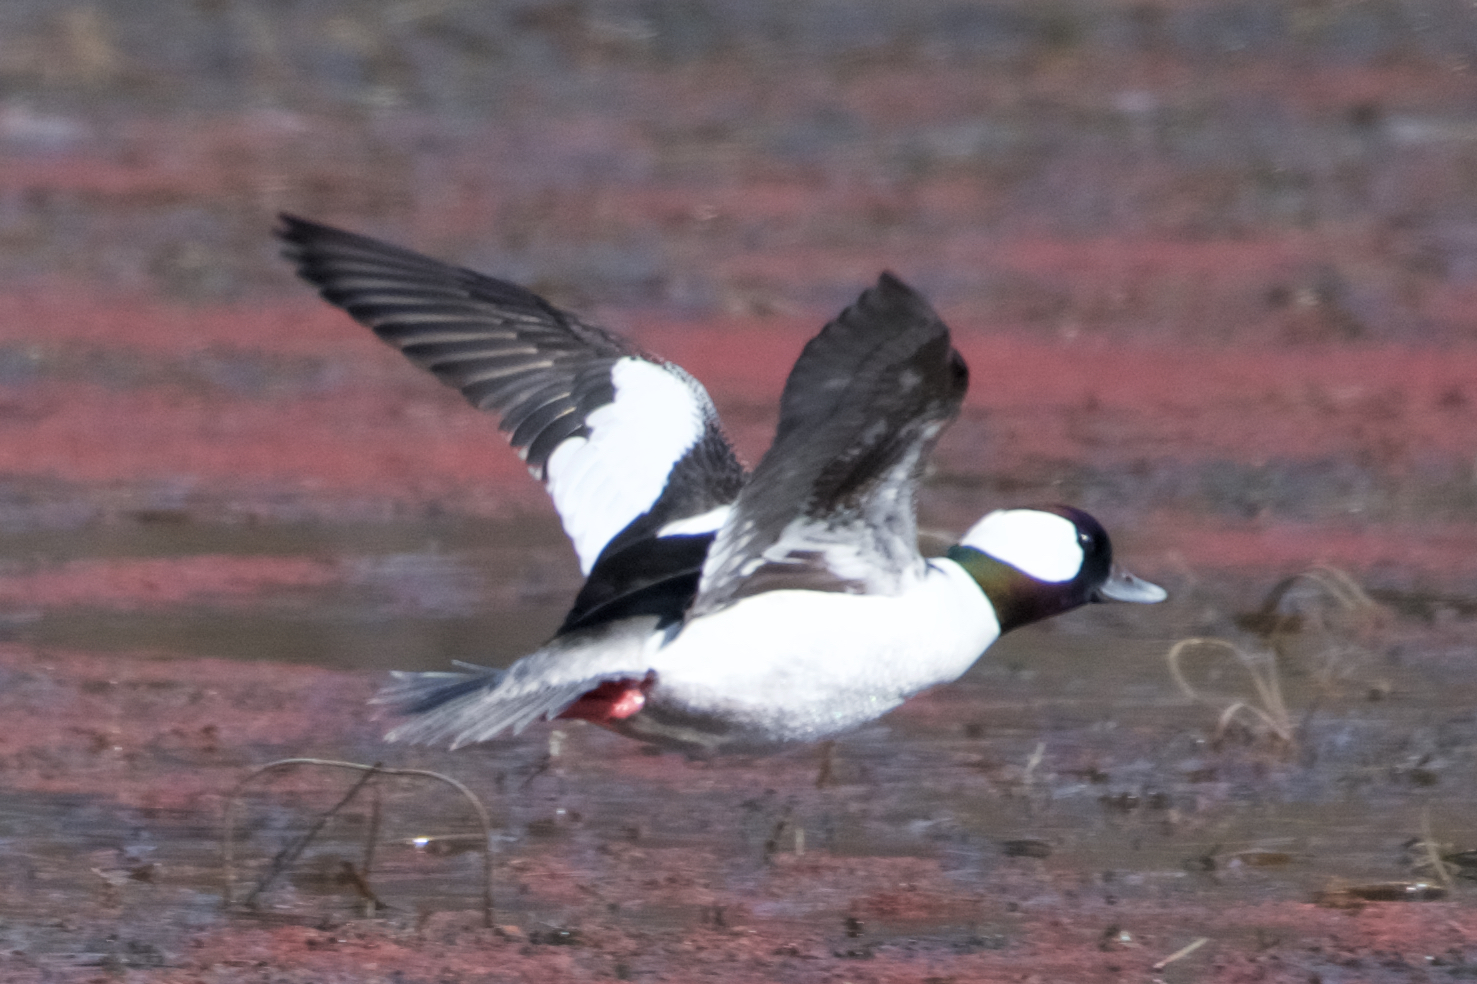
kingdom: Animalia
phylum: Chordata
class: Aves
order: Anseriformes
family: Anatidae
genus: Bucephala
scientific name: Bucephala albeola
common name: Bufflehead
